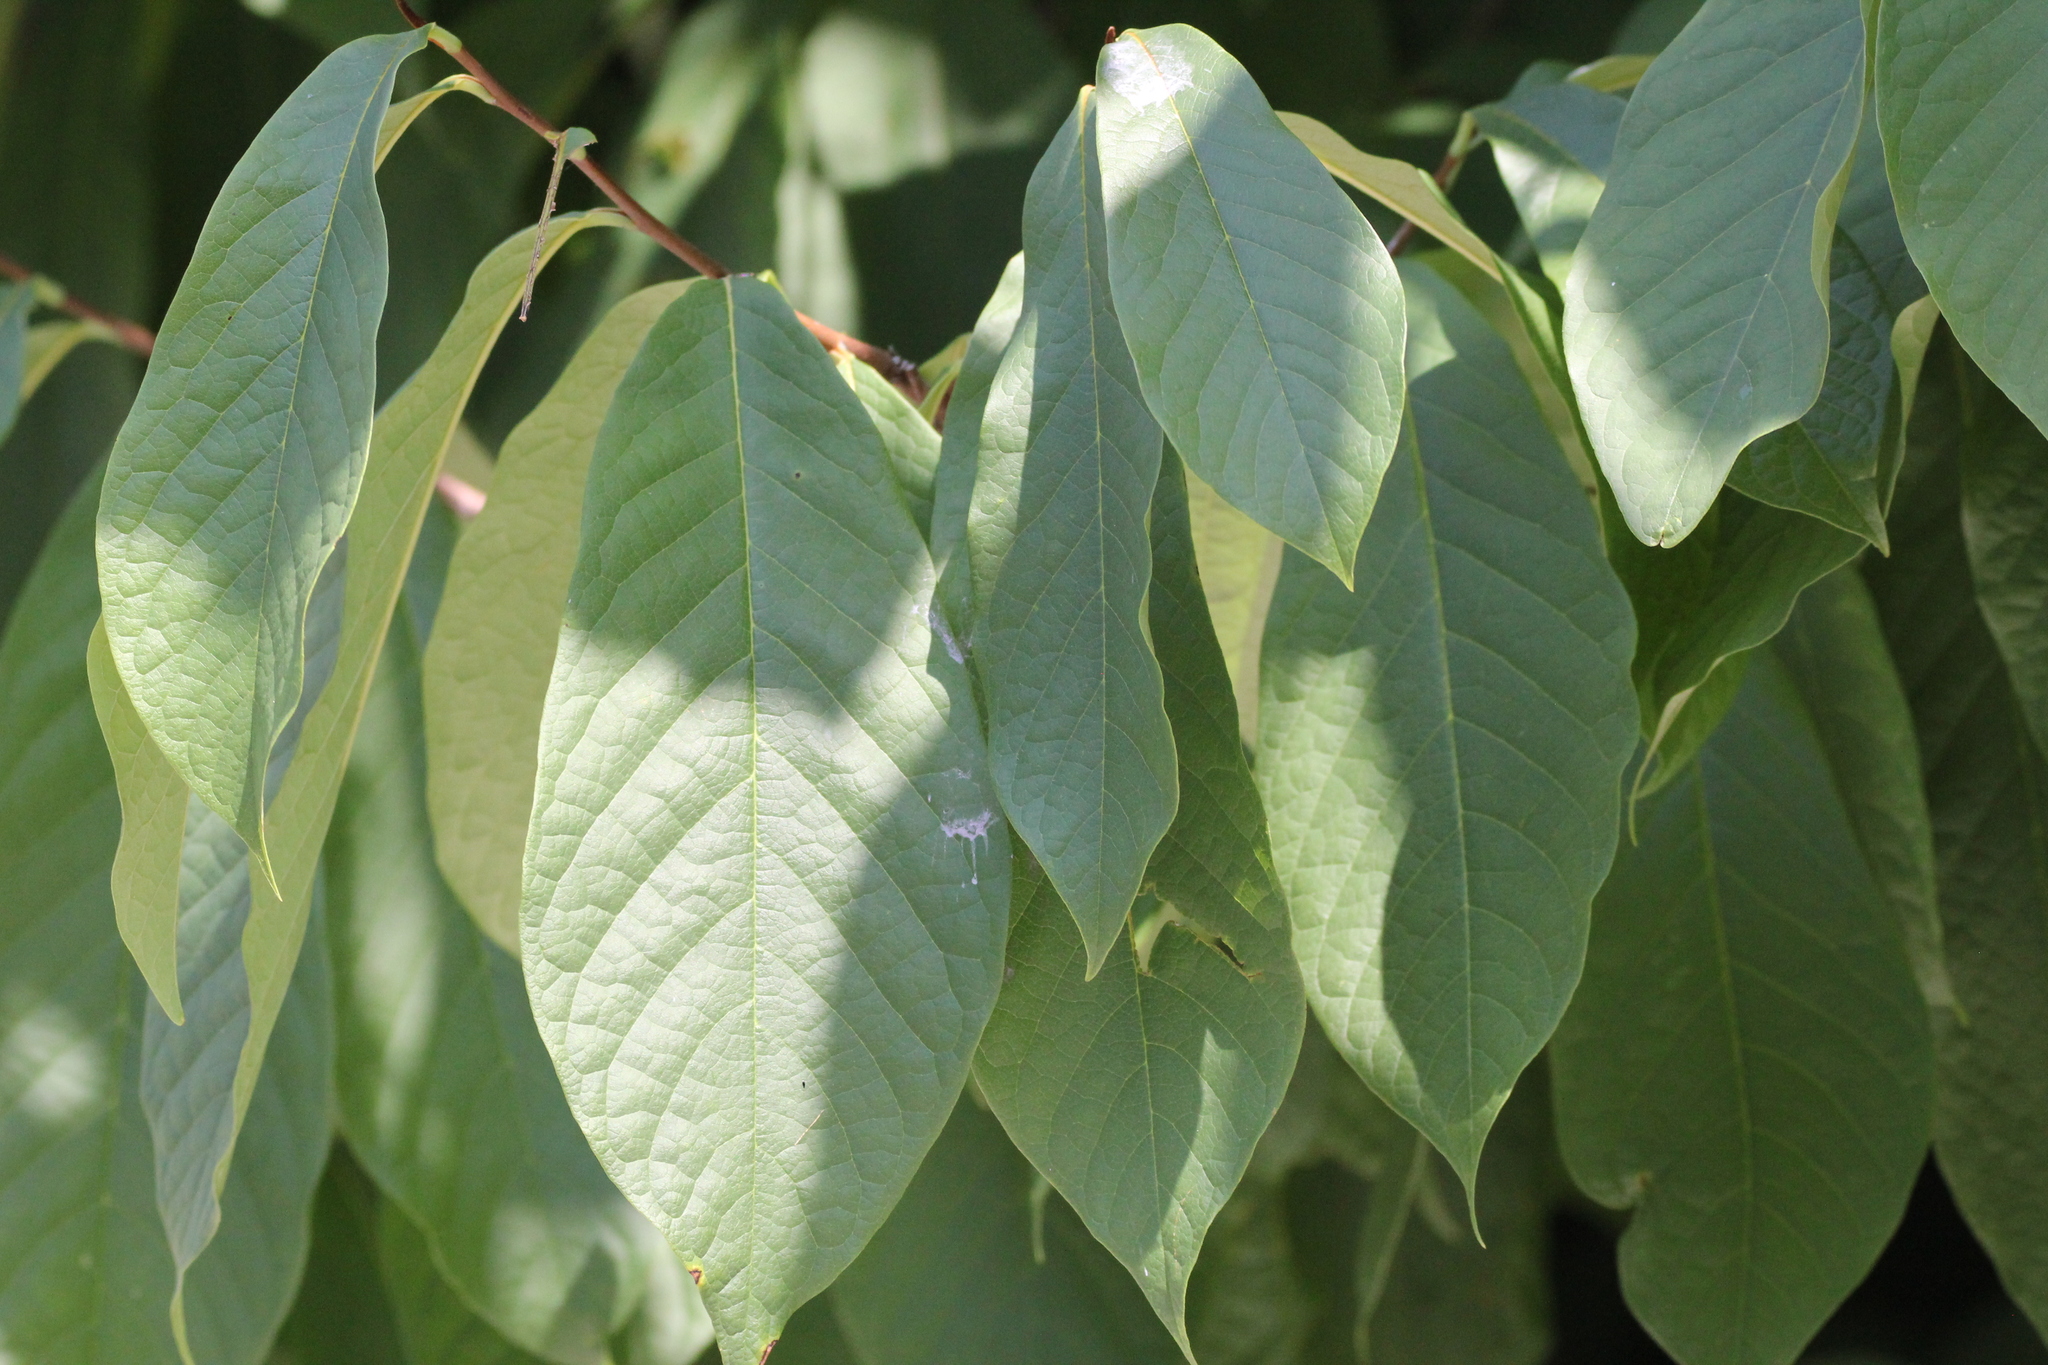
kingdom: Plantae
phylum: Tracheophyta
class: Magnoliopsida
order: Magnoliales
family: Annonaceae
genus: Asimina
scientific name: Asimina triloba
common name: Dog-banana
